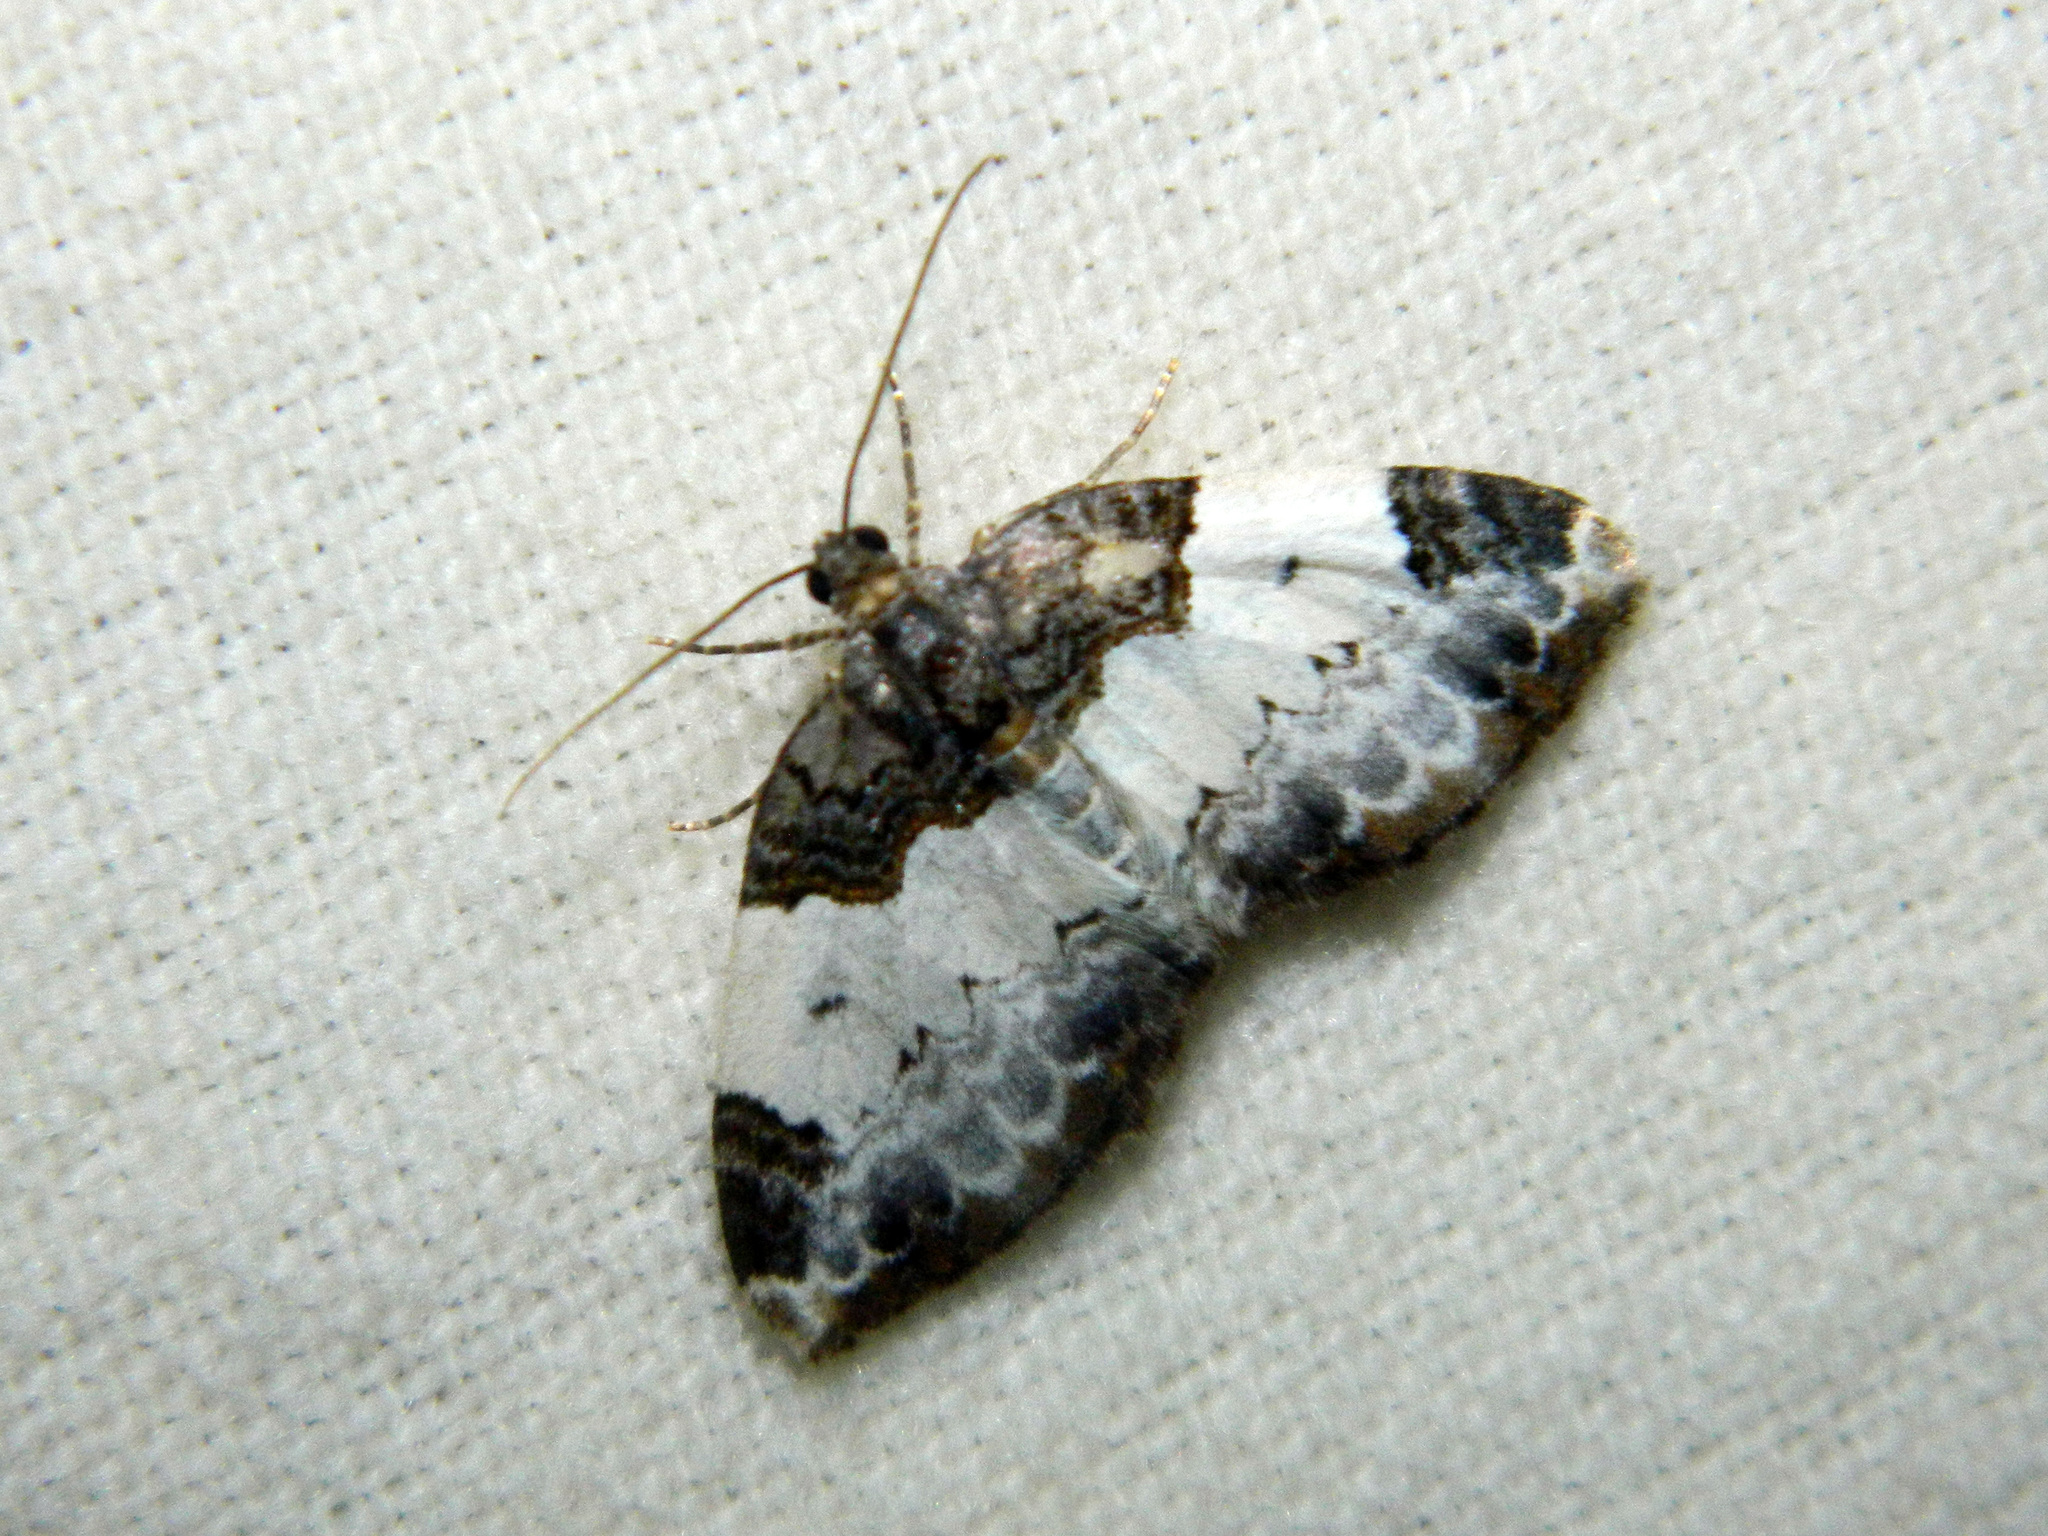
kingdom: Animalia
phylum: Arthropoda
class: Insecta
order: Lepidoptera
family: Geometridae
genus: Mesoleuca
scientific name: Mesoleuca ruficillata
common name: White-ribboned carpet moth
